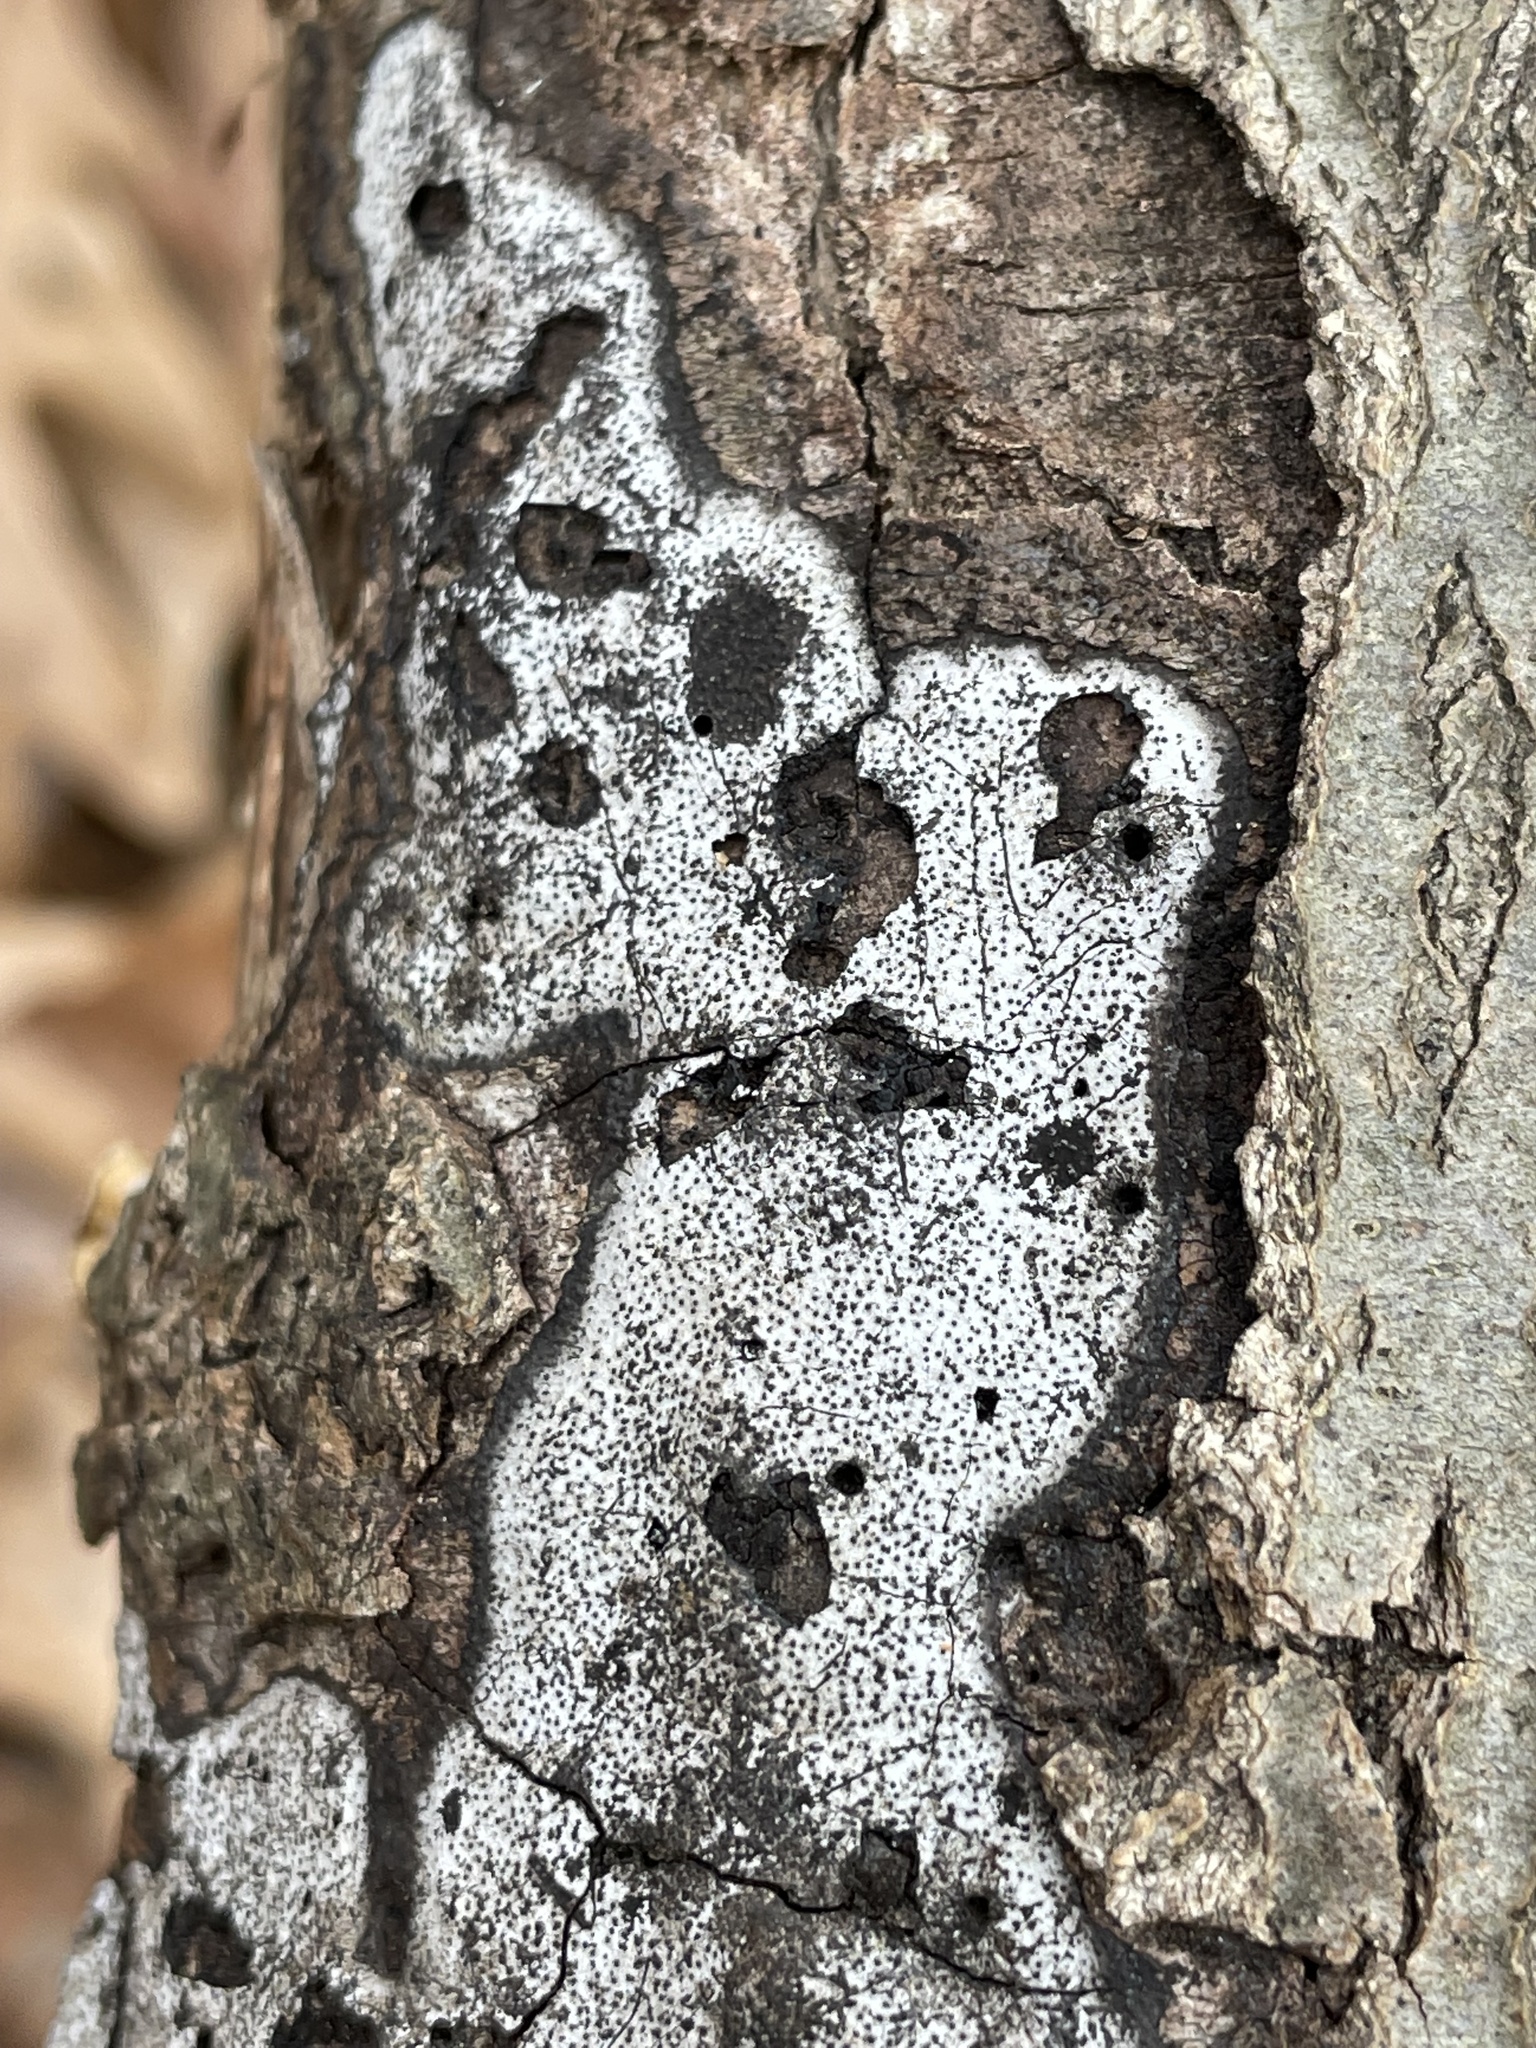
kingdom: Fungi
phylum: Ascomycota
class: Sordariomycetes
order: Xylariales
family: Graphostromataceae
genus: Biscogniauxia
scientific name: Biscogniauxia atropunctata
